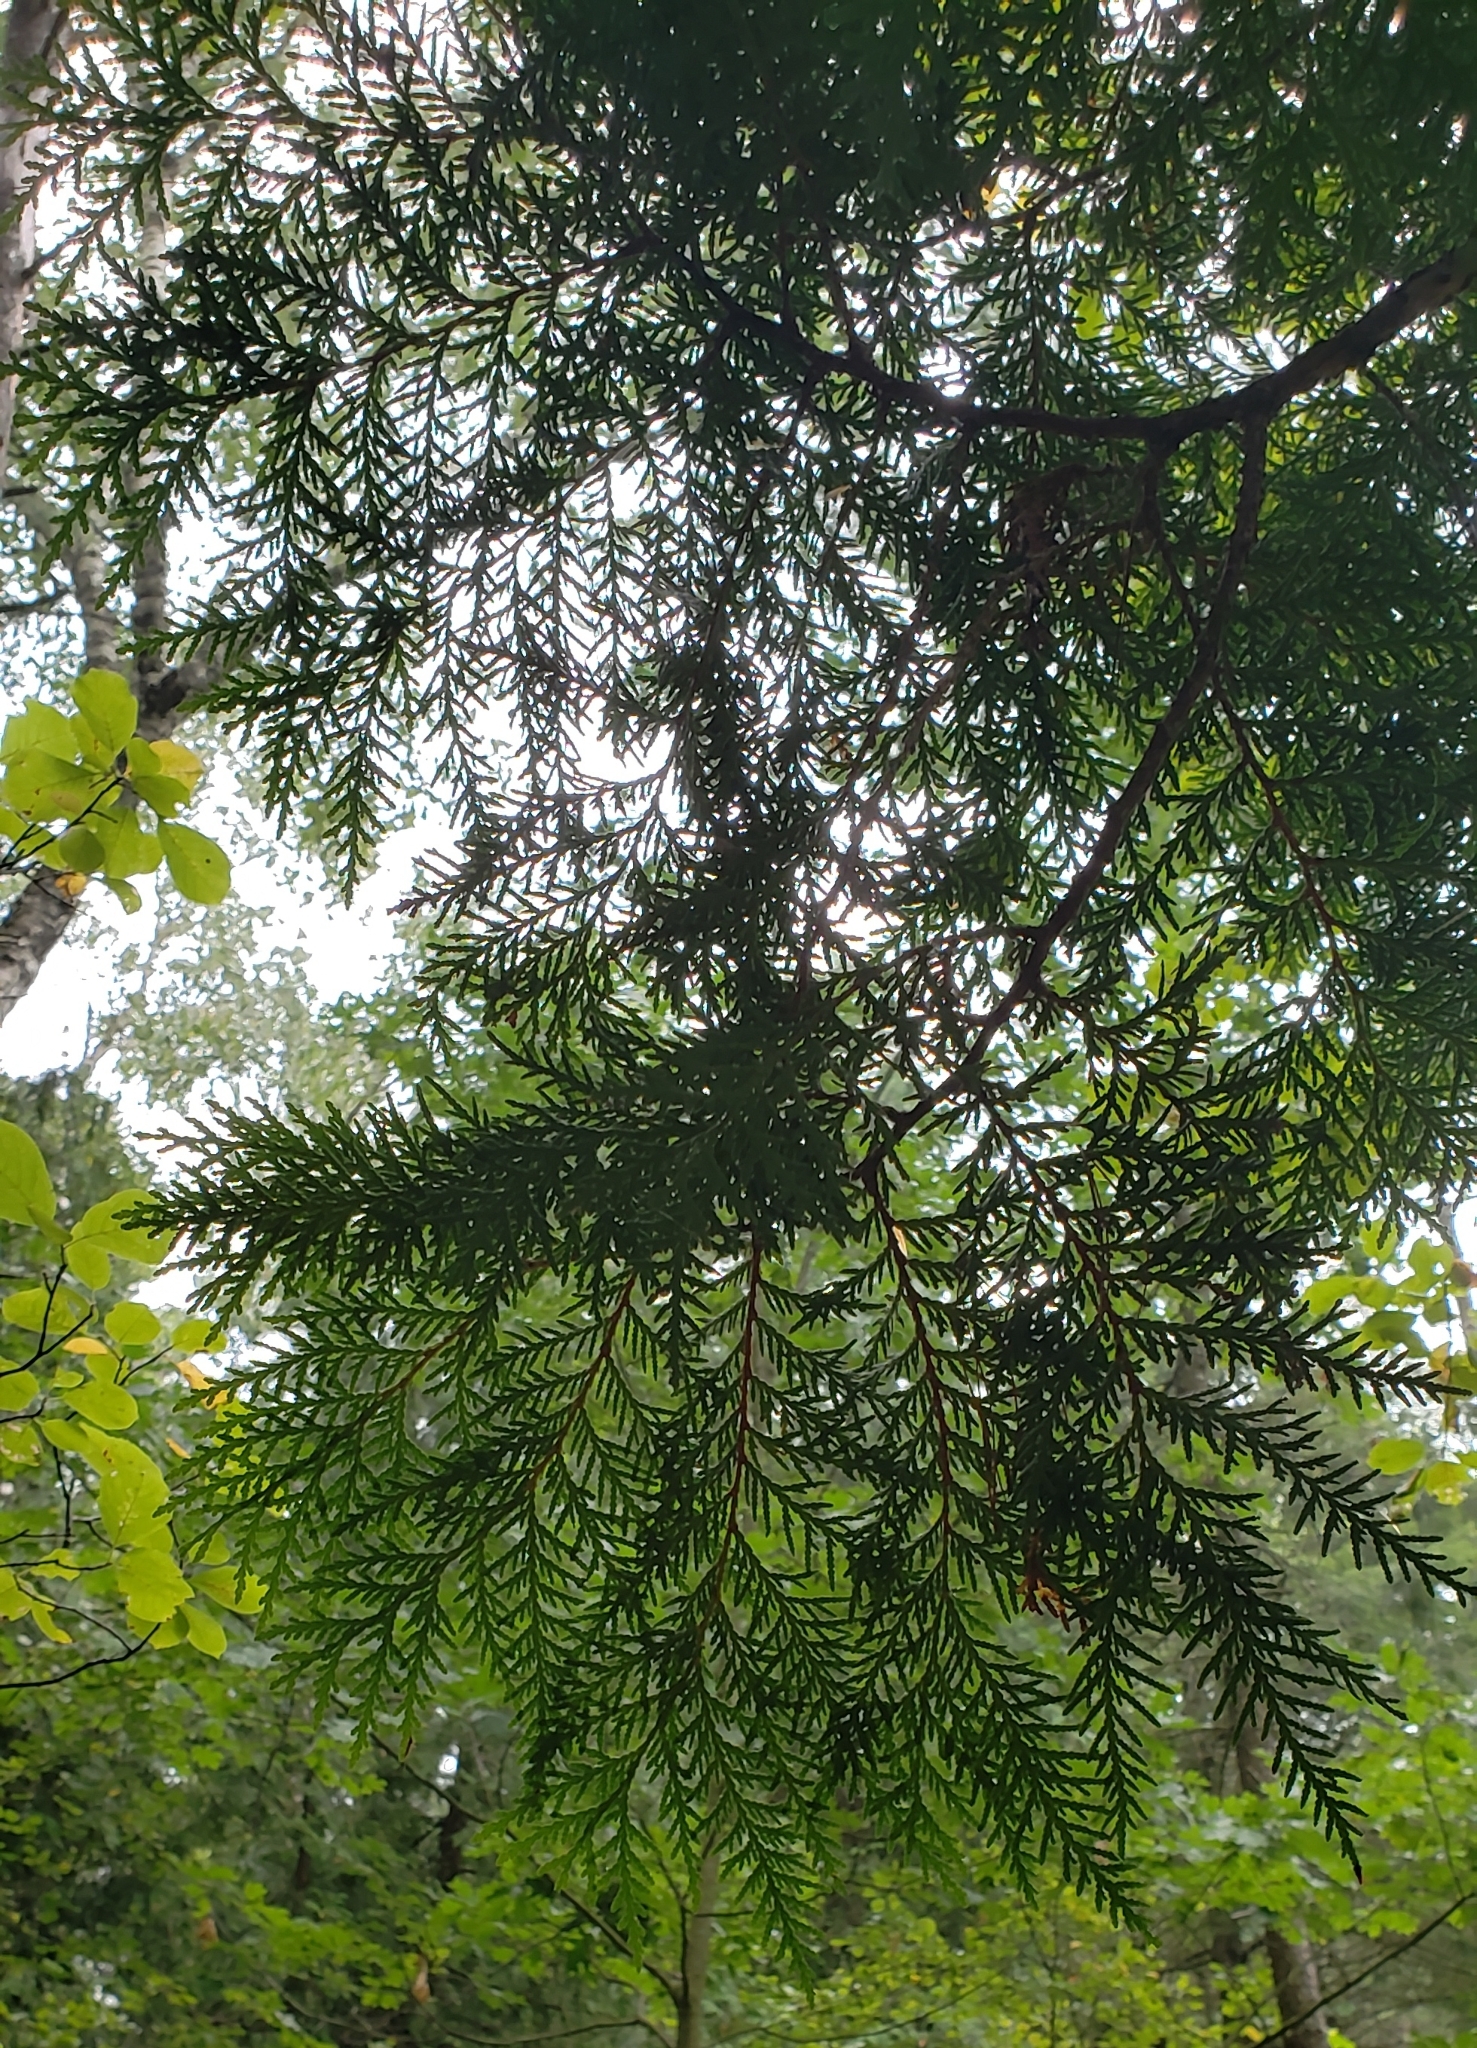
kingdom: Plantae
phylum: Tracheophyta
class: Pinopsida
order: Pinales
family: Cupressaceae
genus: Thuja
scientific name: Thuja occidentalis
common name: Northern white-cedar
